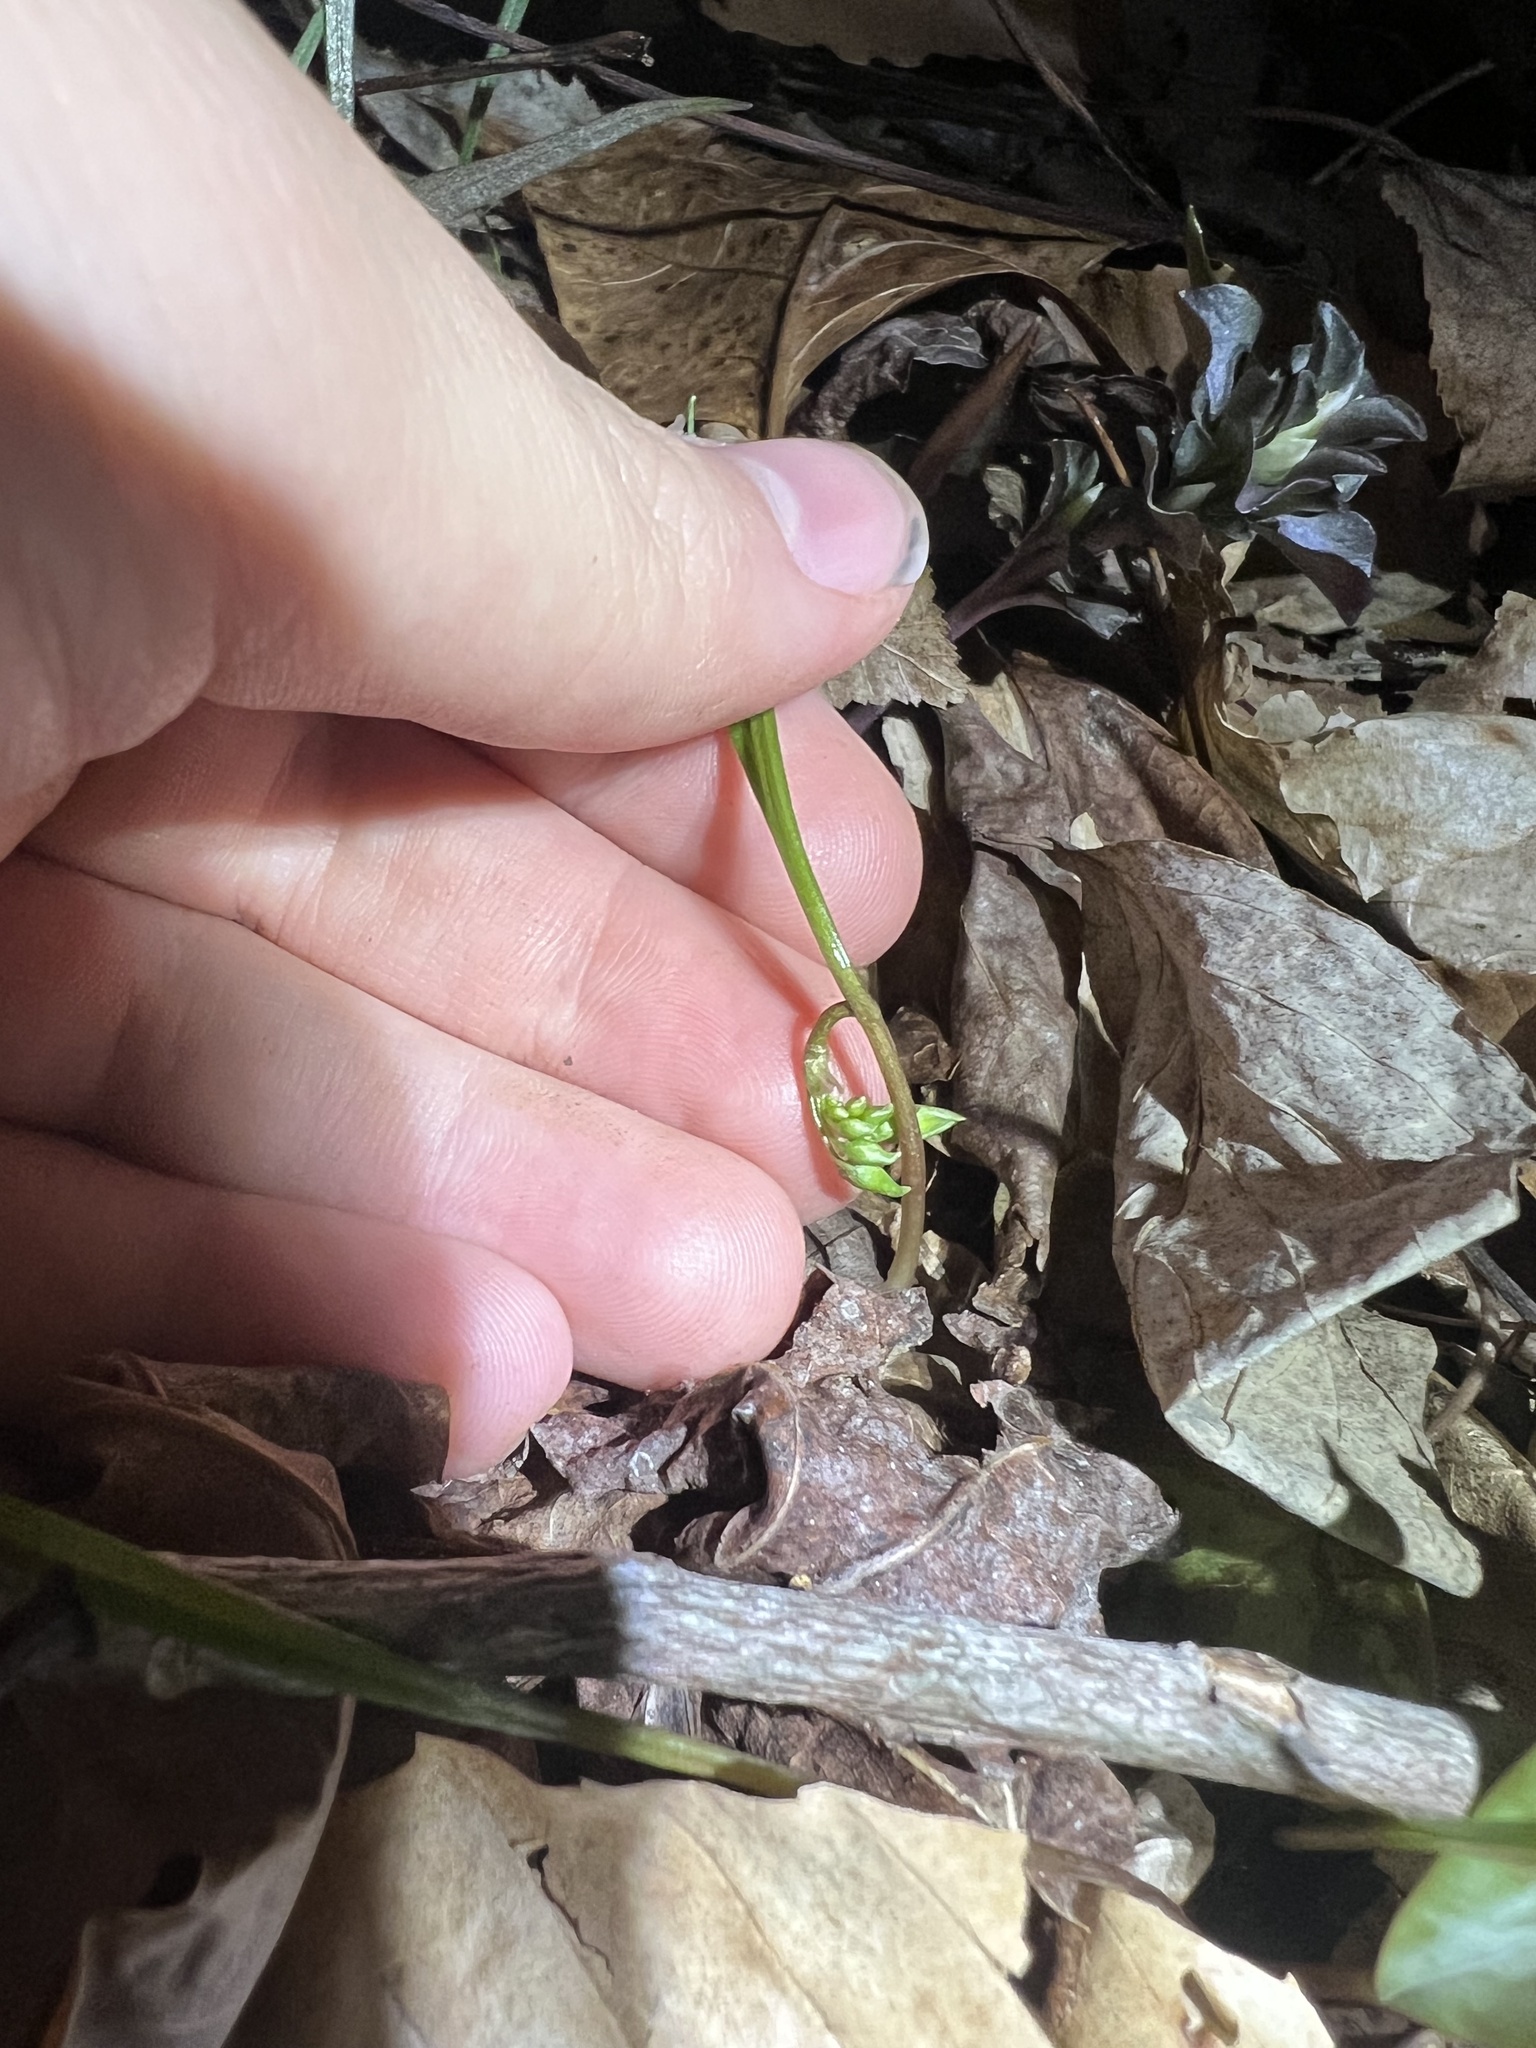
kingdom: Plantae
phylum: Tracheophyta
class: Magnoliopsida
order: Caryophyllales
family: Montiaceae
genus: Claytonia
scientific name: Claytonia virginica
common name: Virginia springbeauty
